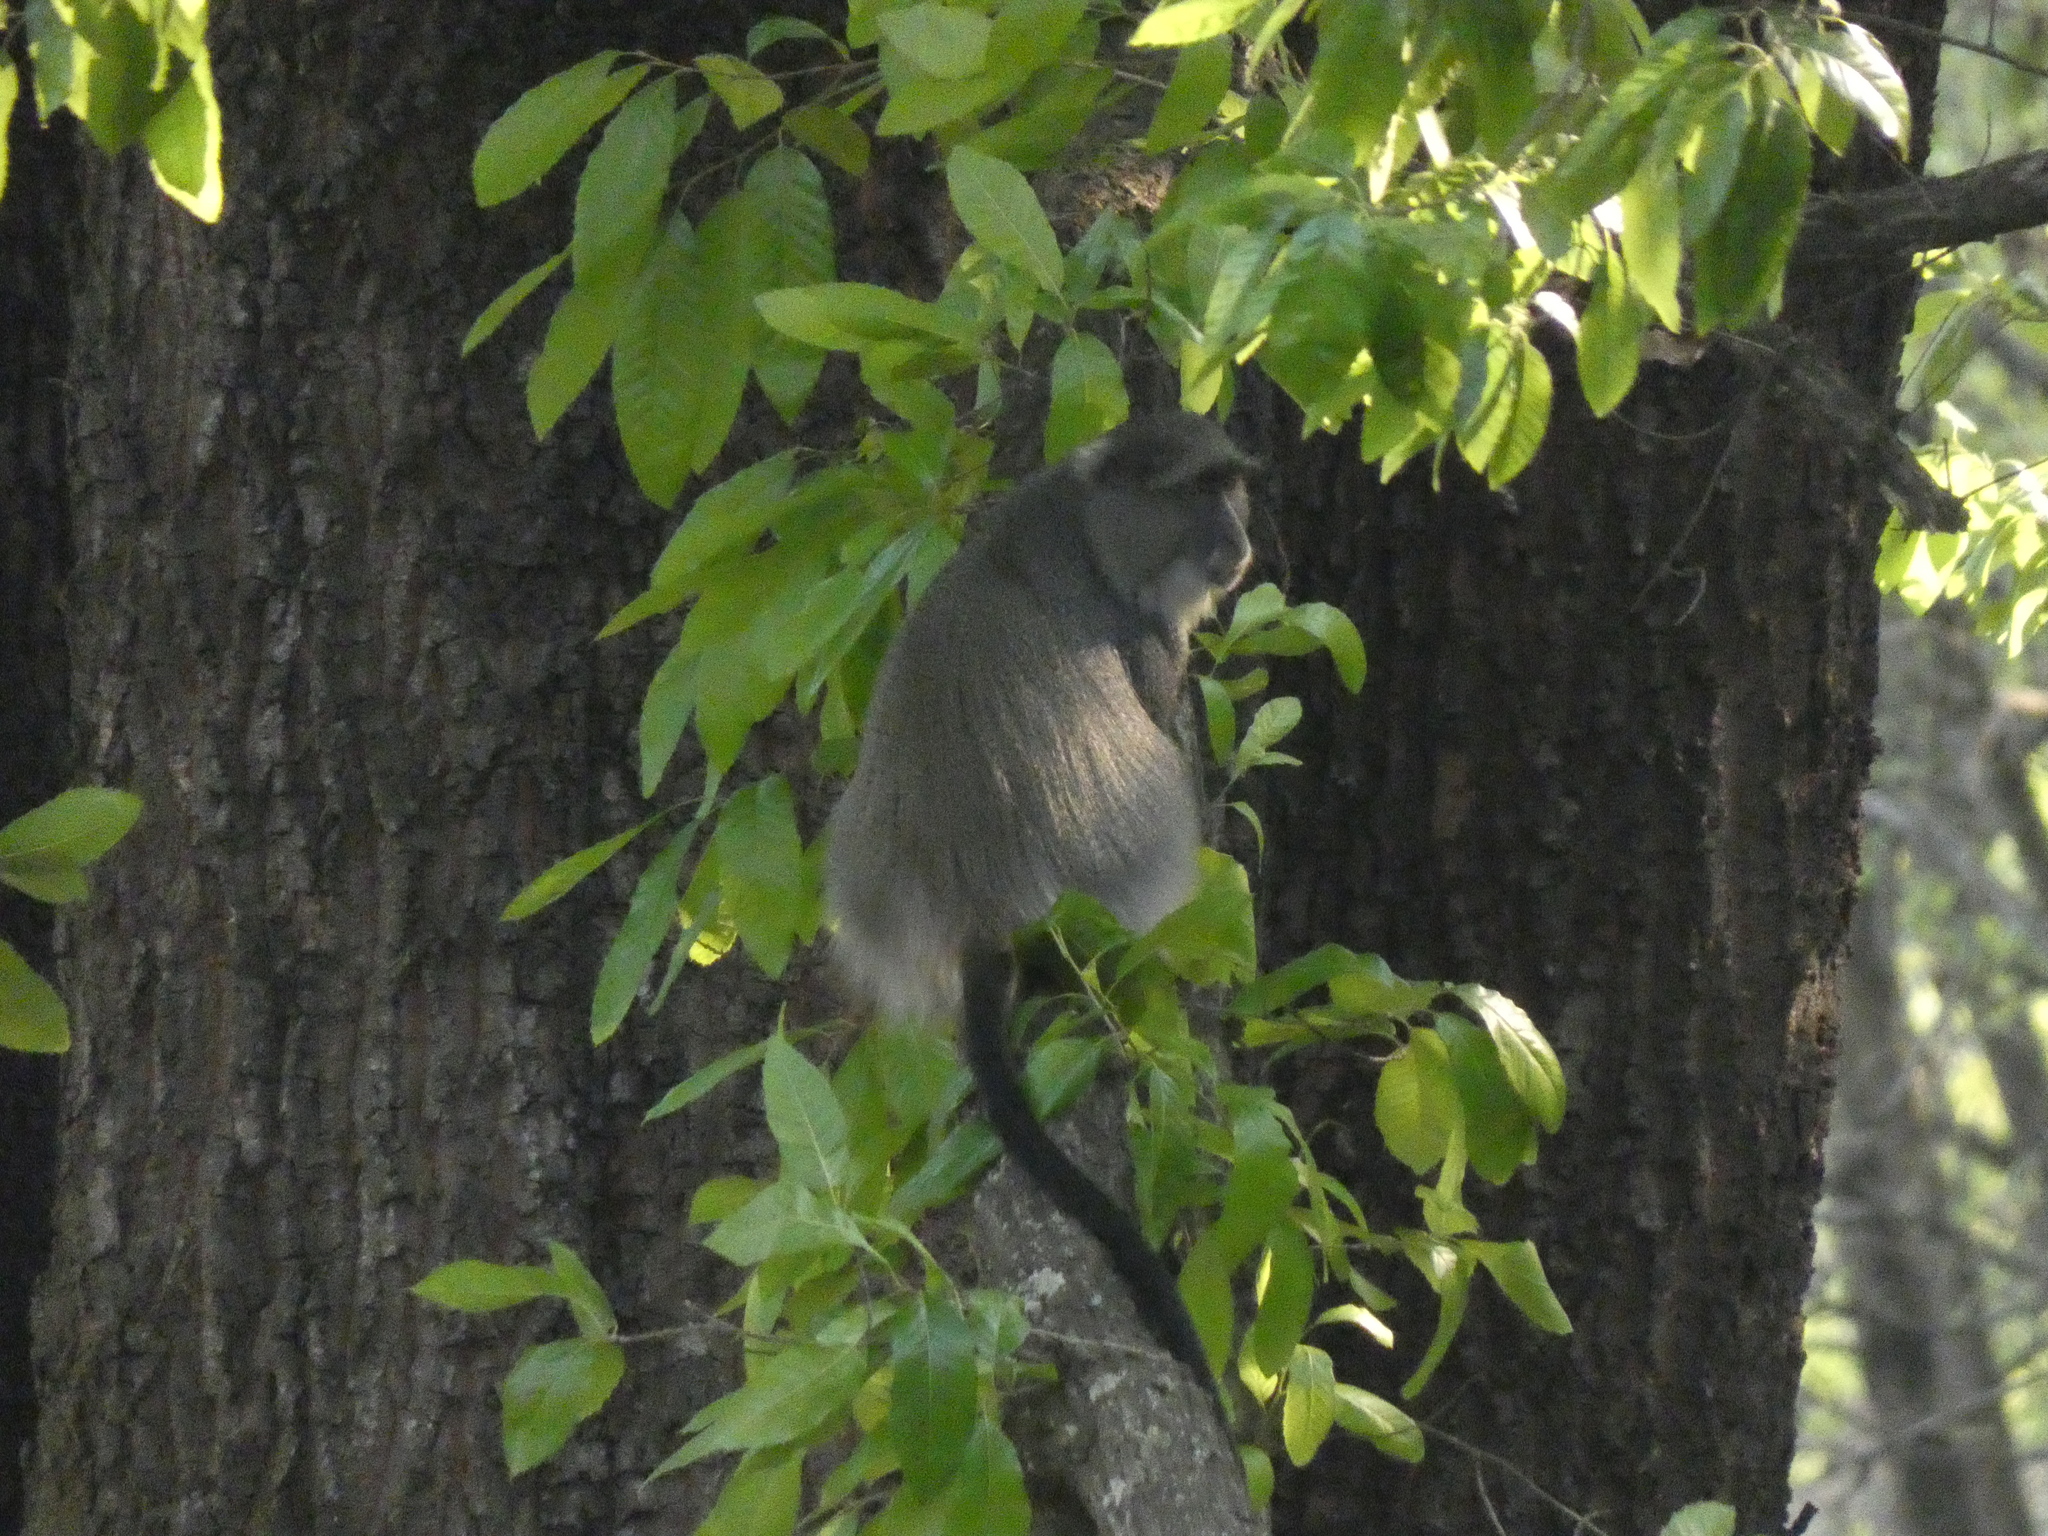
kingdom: Animalia
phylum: Chordata
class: Mammalia
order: Primates
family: Cercopithecidae
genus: Cercopithecus
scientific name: Cercopithecus mitis
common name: Blue monkey
